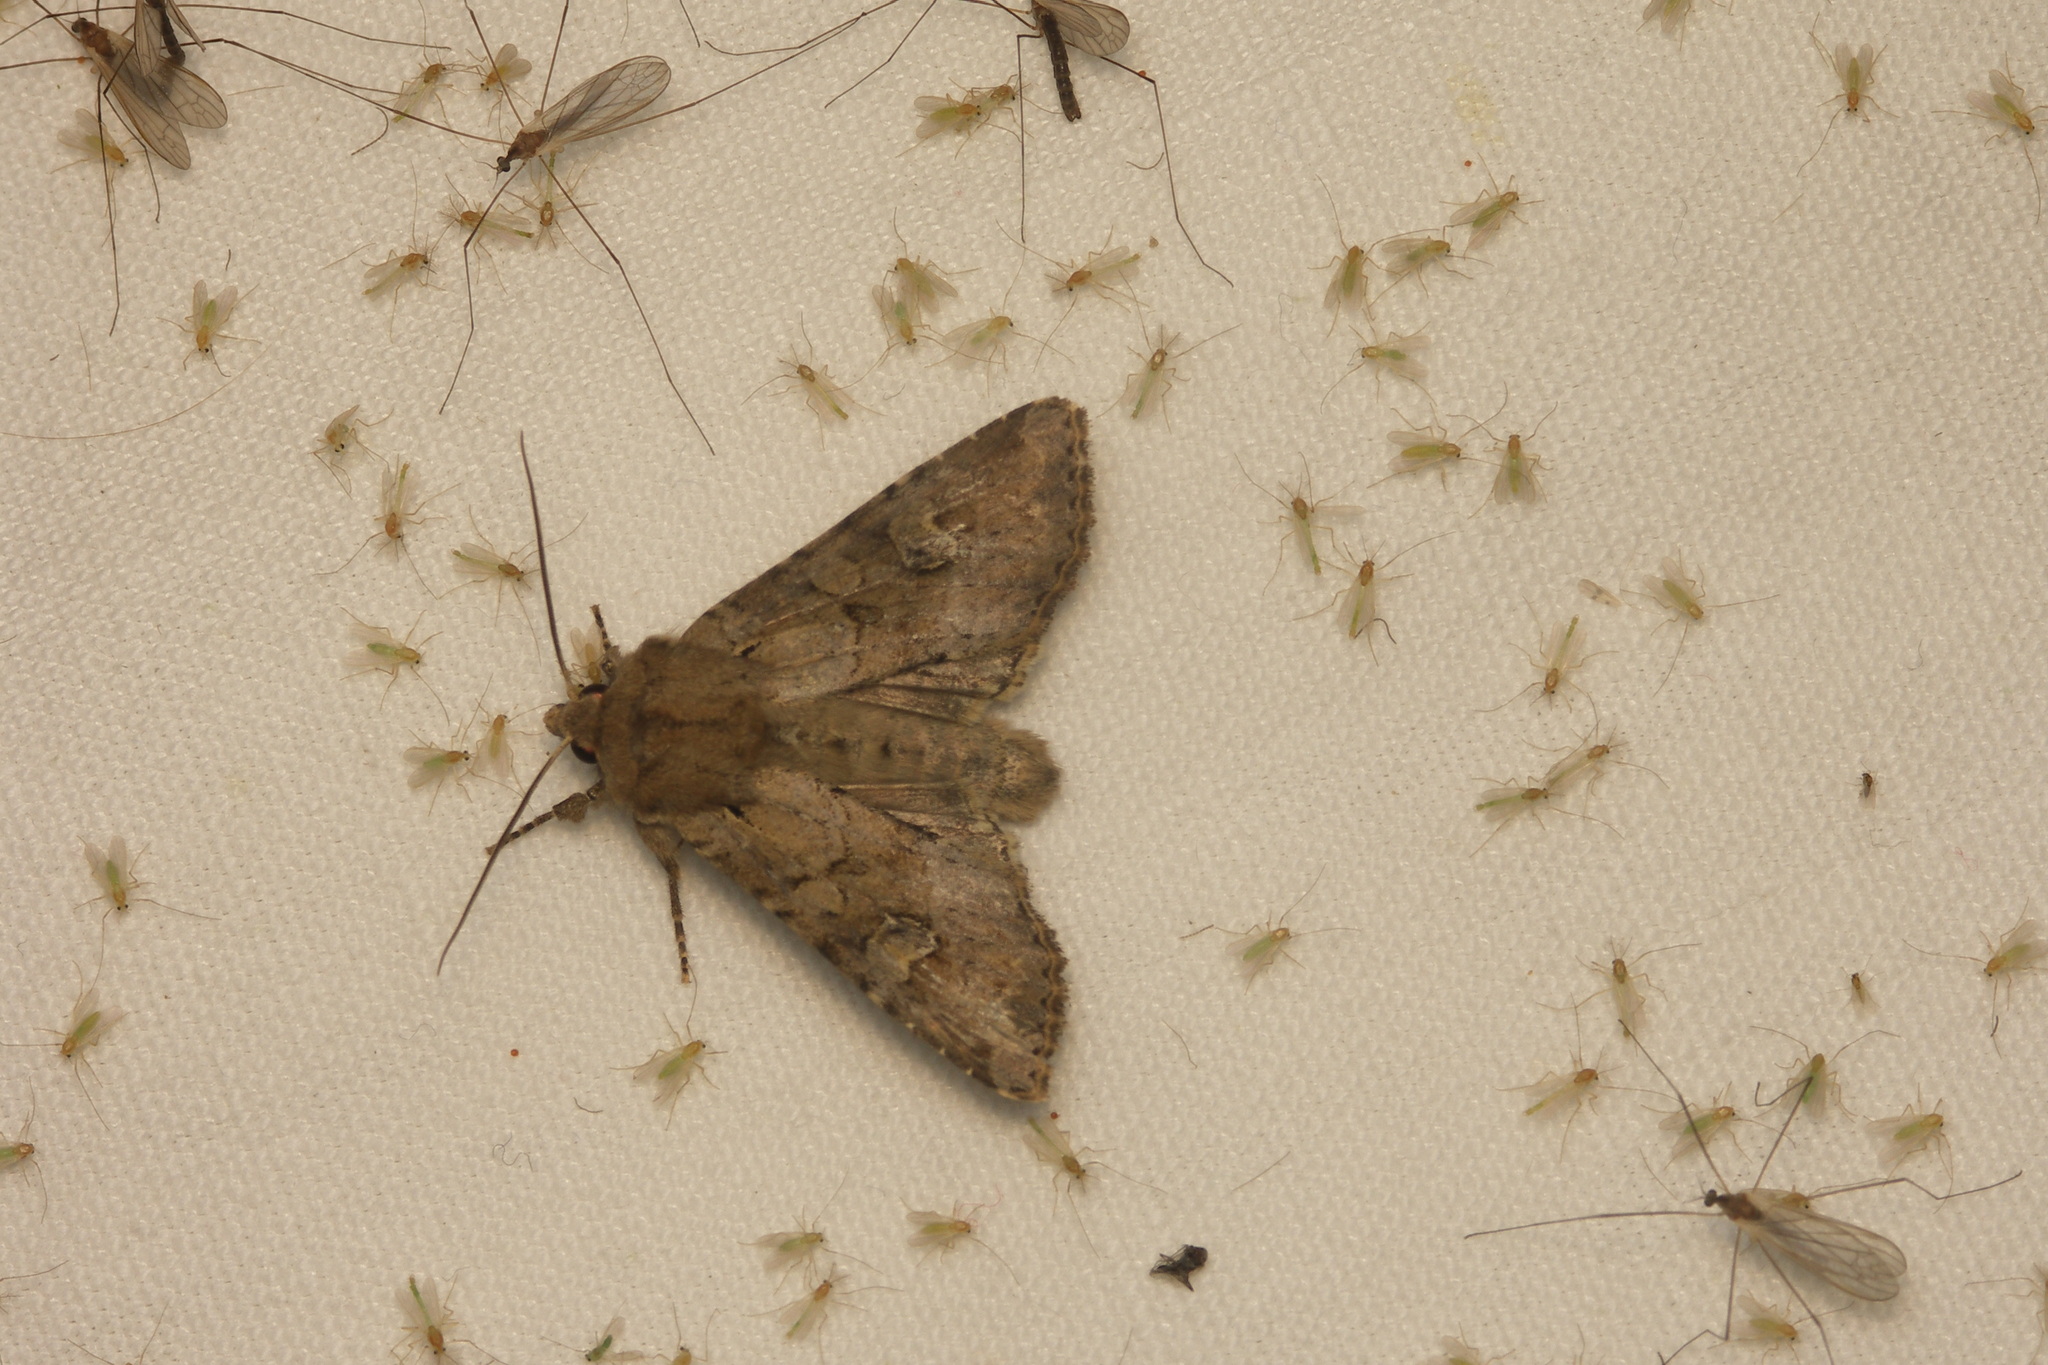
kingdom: Animalia
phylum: Arthropoda
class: Insecta
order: Lepidoptera
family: Noctuidae
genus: Apamea
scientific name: Apamea sordens
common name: Rustic shoulder-knot
